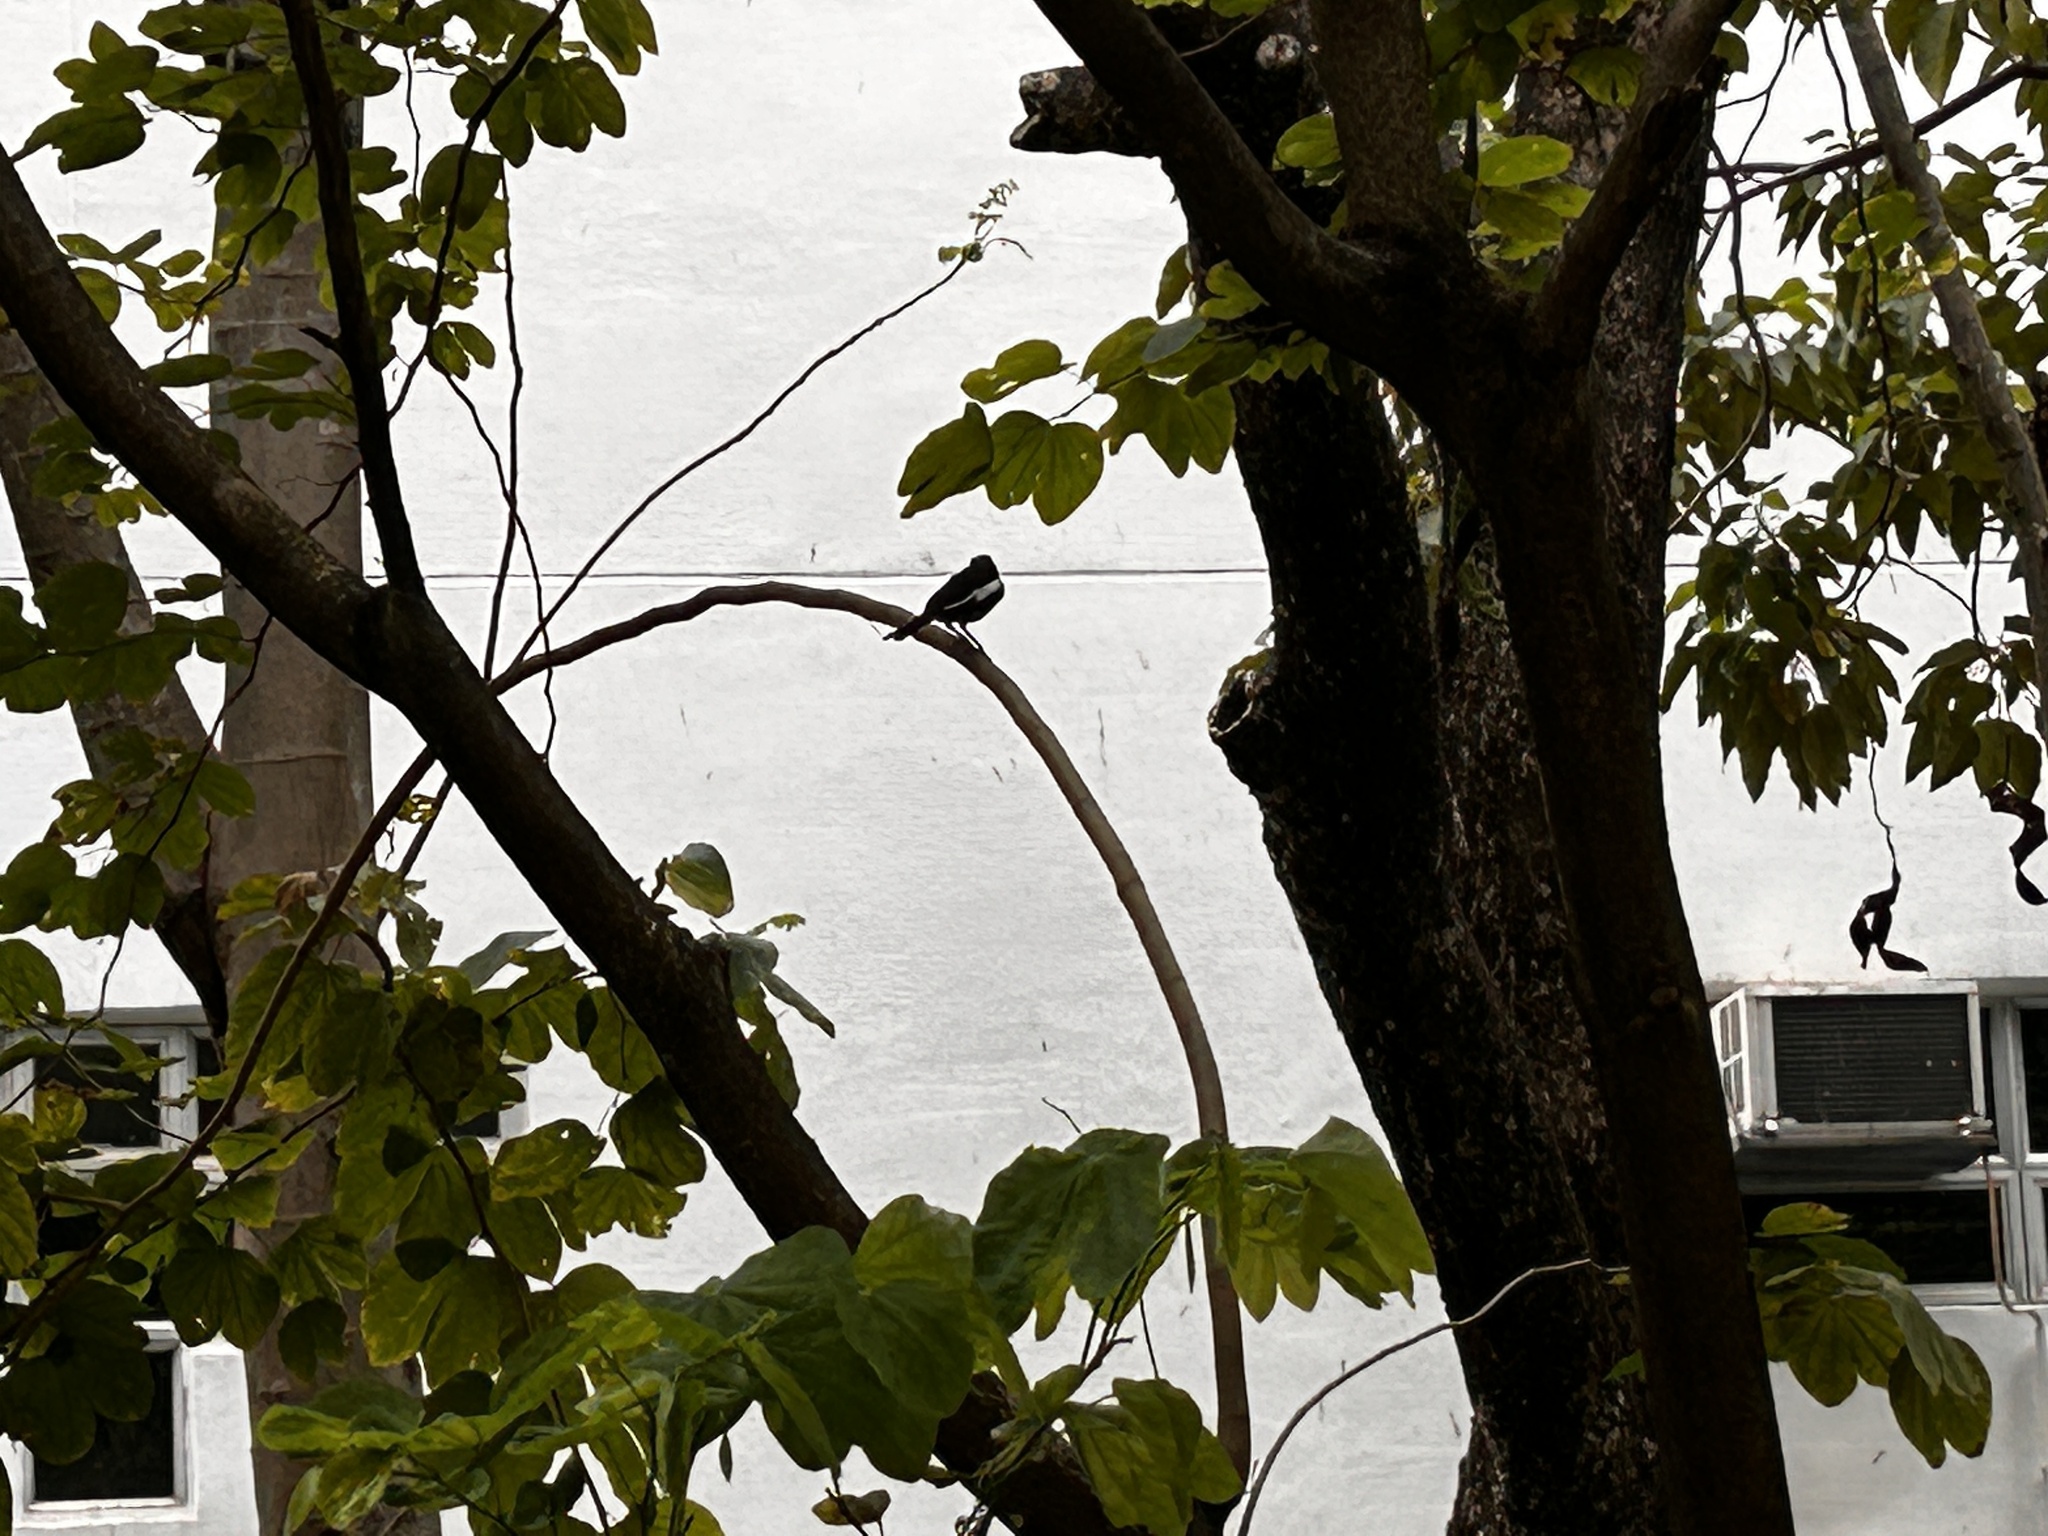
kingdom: Animalia
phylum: Chordata
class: Aves
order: Passeriformes
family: Muscicapidae
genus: Copsychus
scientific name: Copsychus saularis
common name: Oriental magpie-robin
